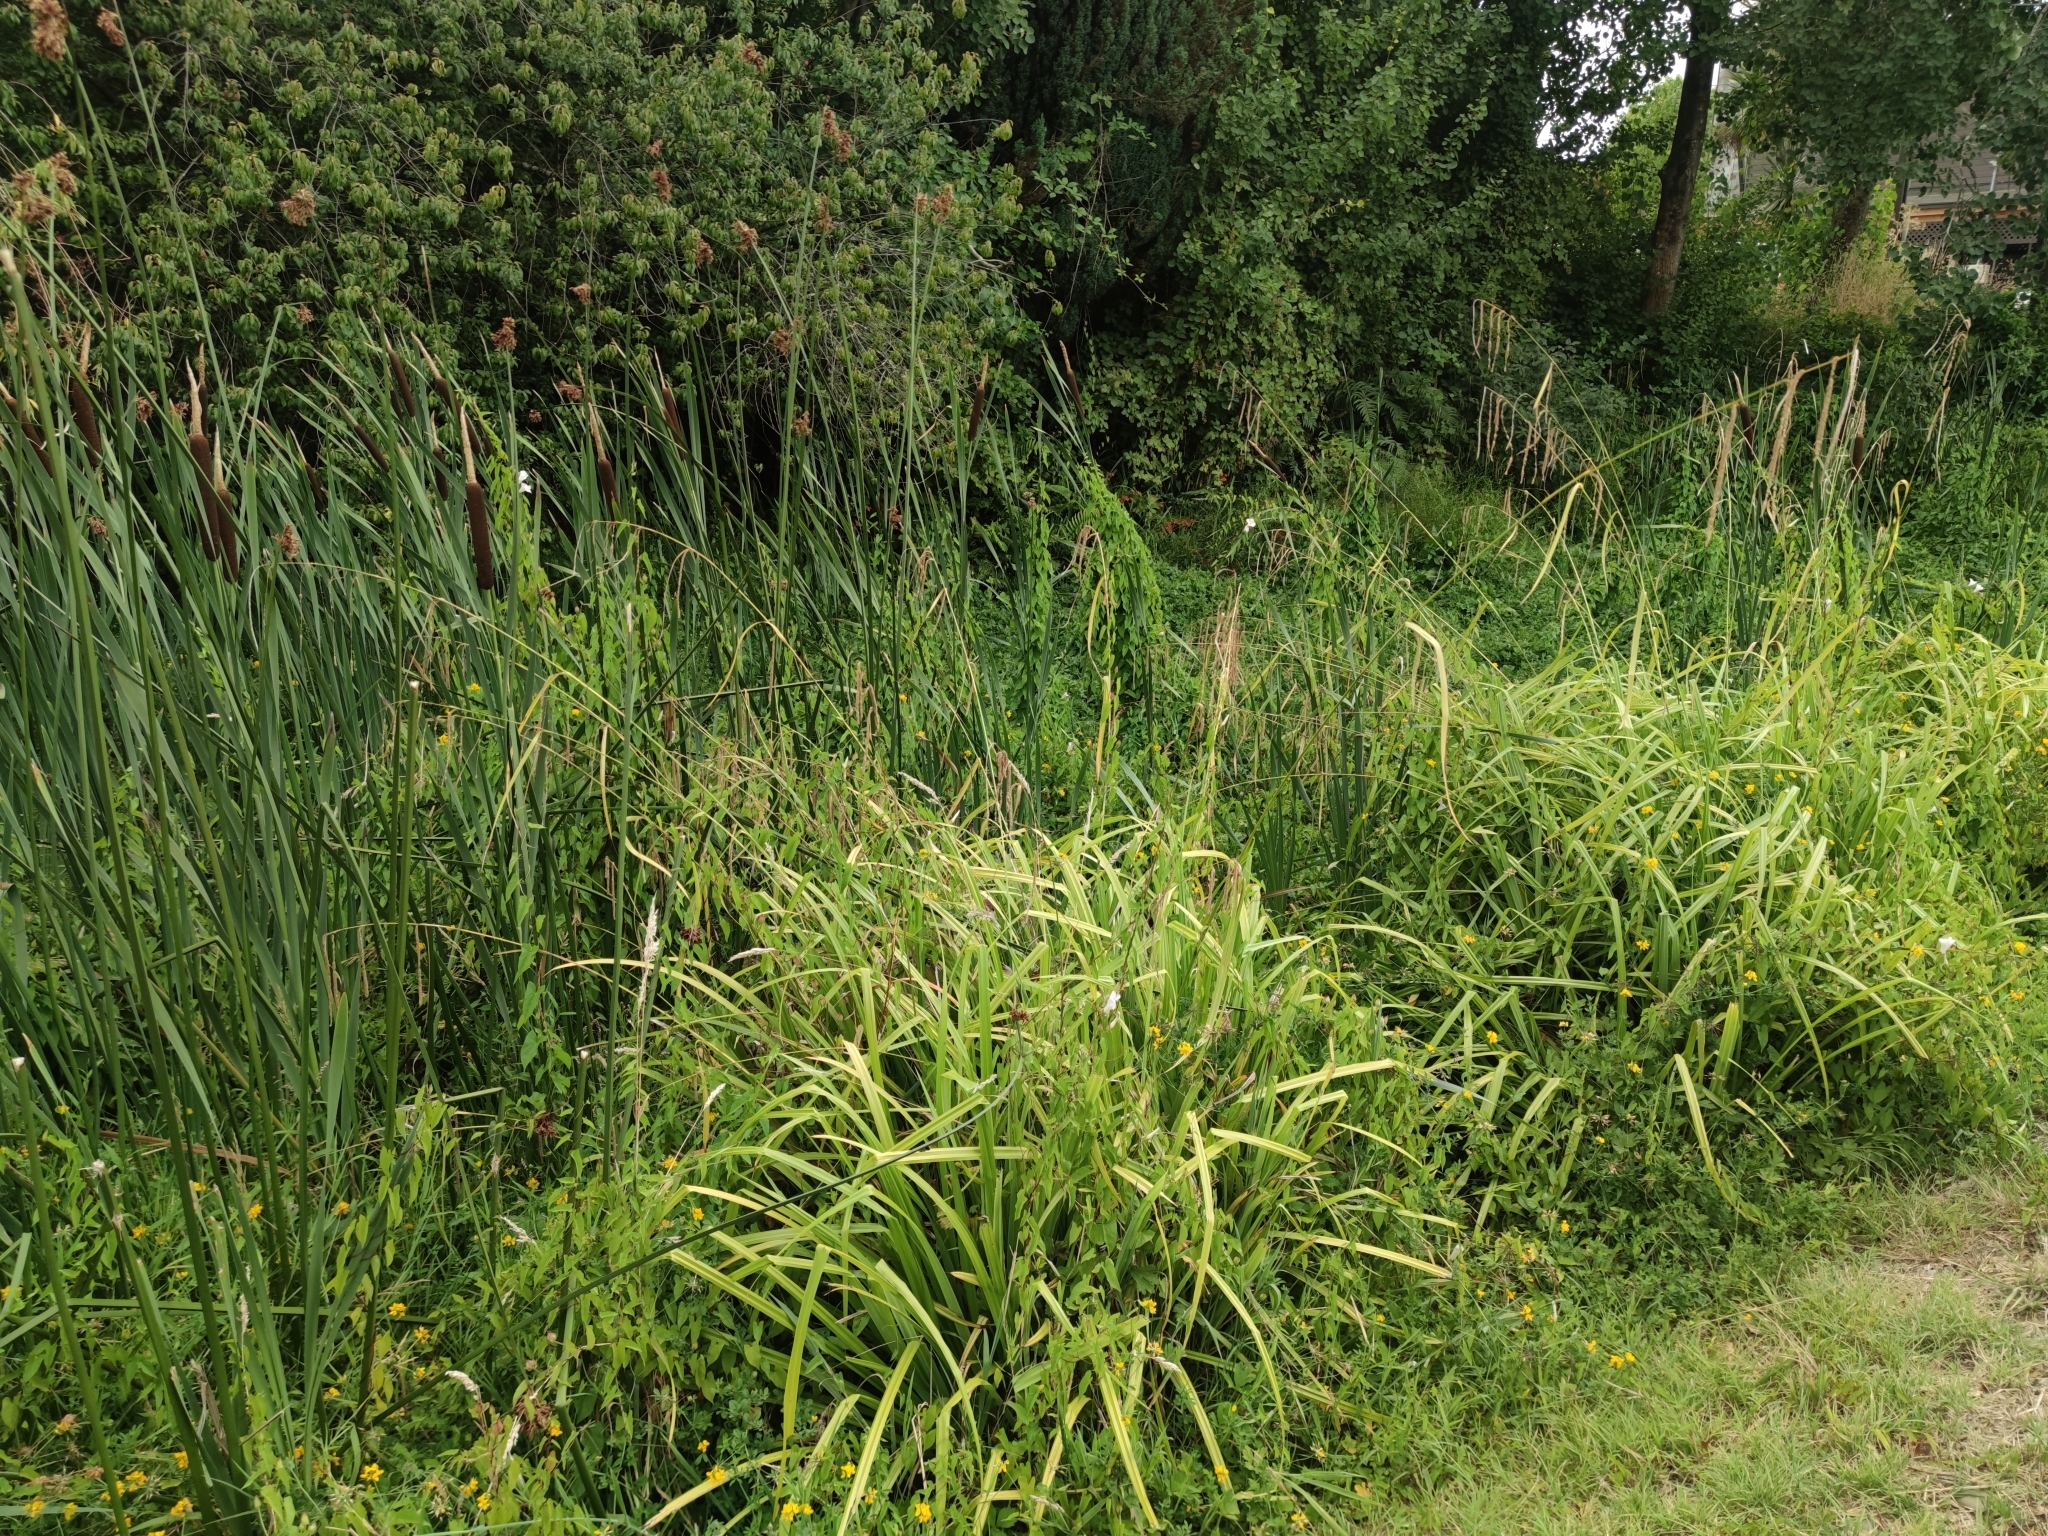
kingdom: Plantae
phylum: Tracheophyta
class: Liliopsida
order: Poales
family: Cyperaceae
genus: Carex
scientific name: Carex pendula
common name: Pendulous sedge
